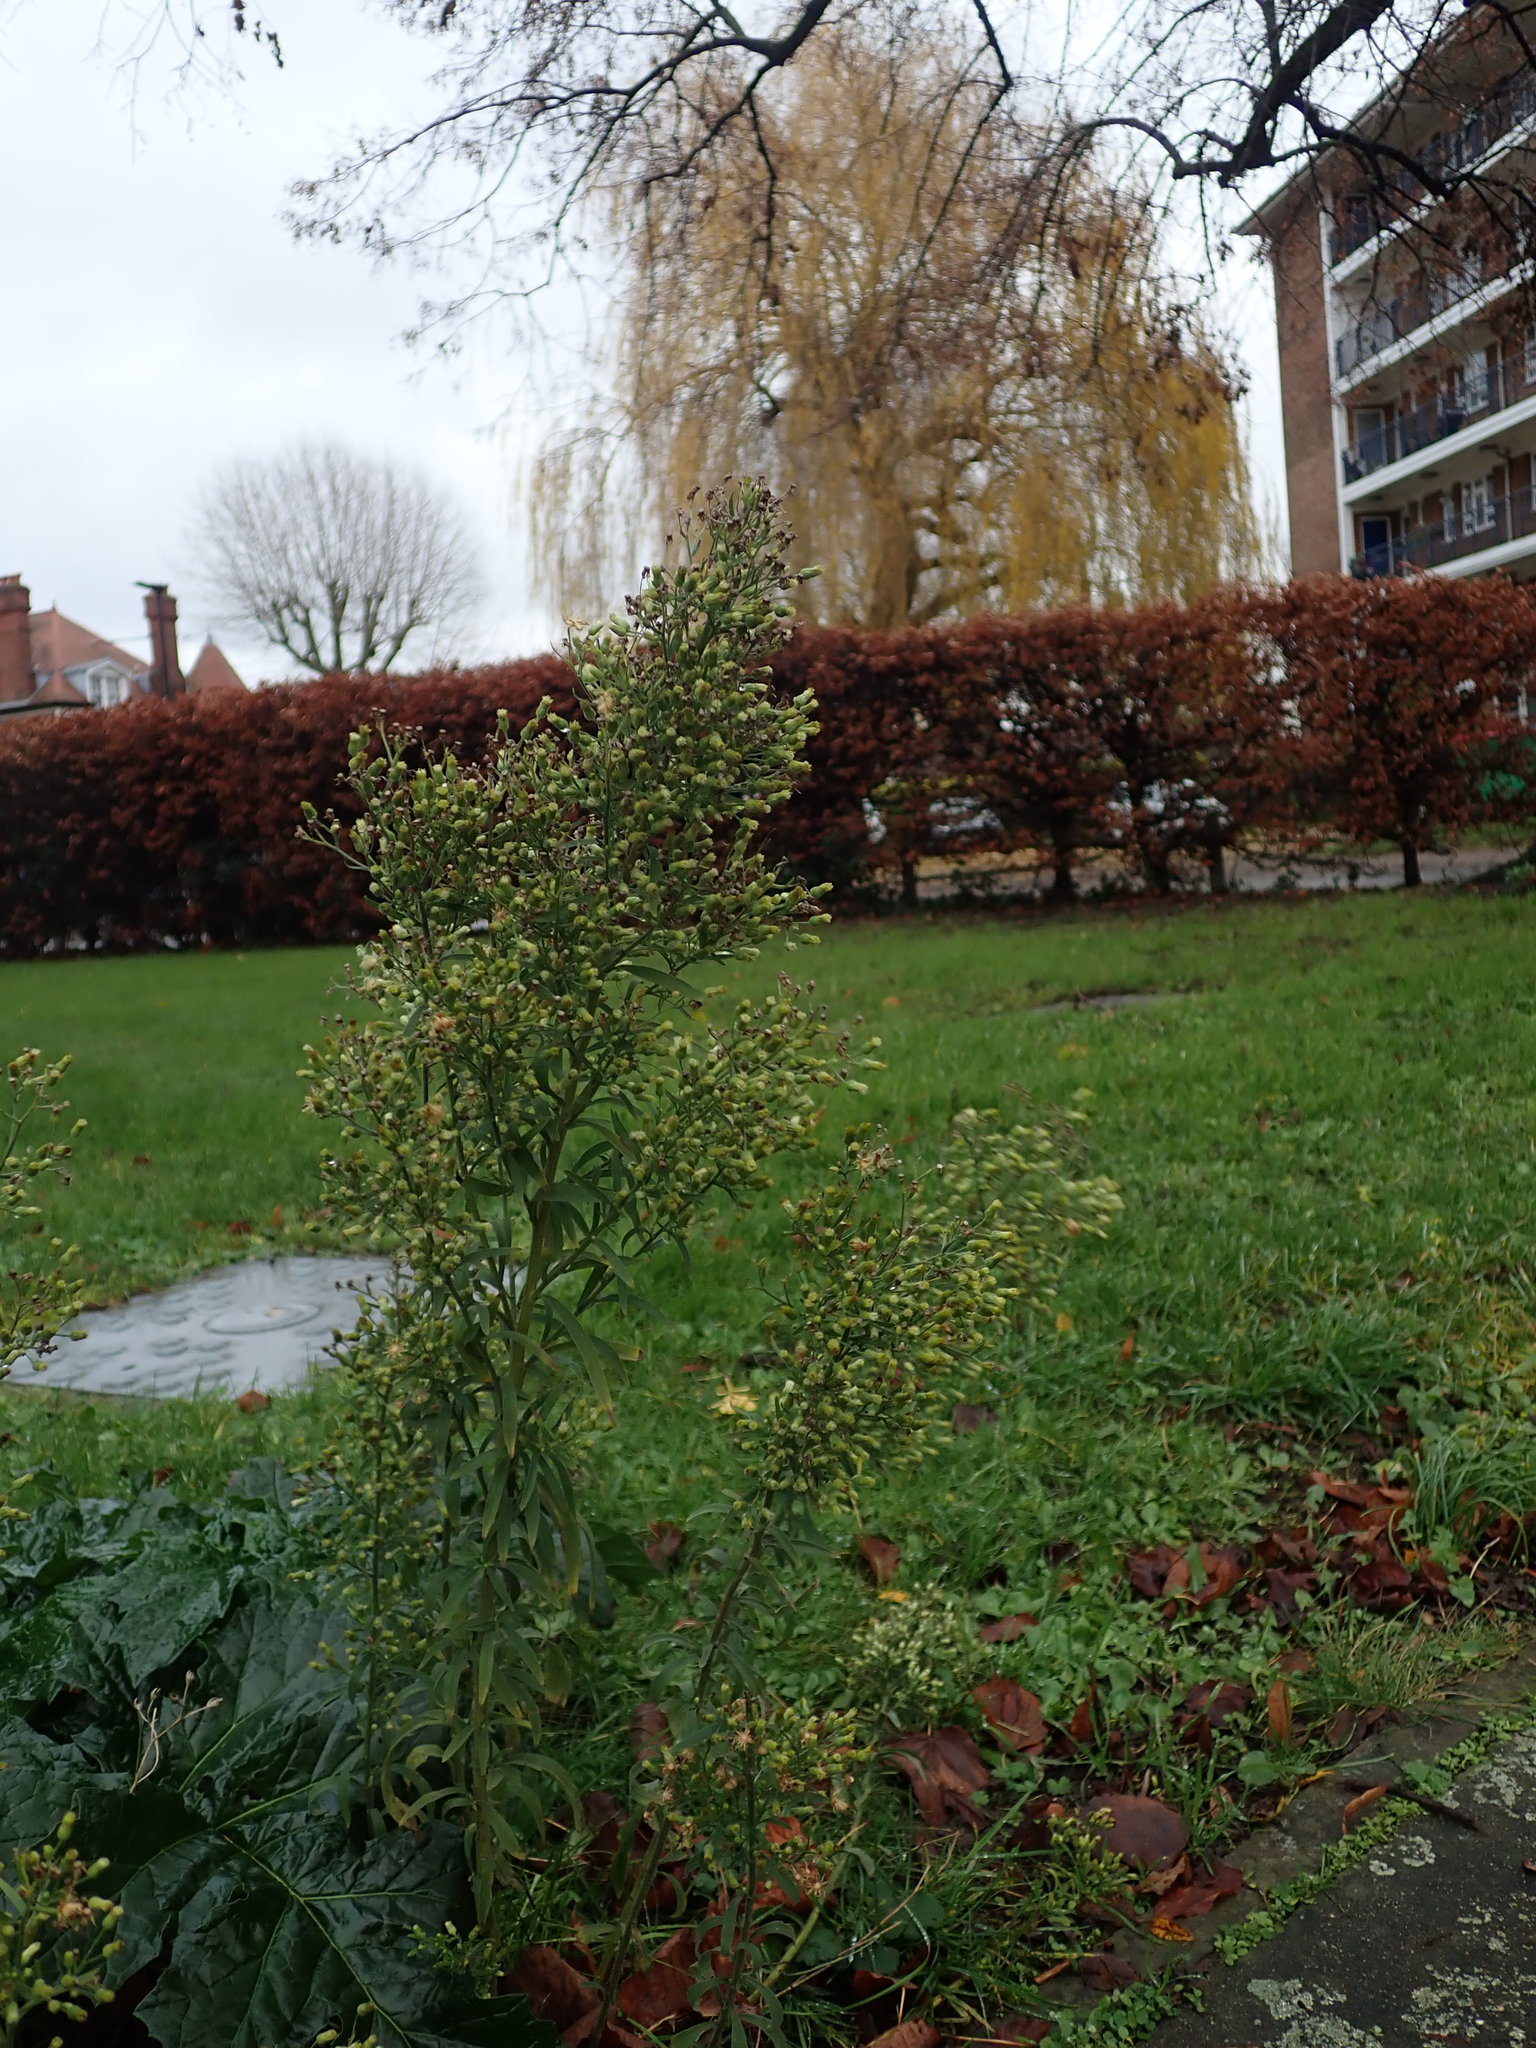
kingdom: Plantae
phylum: Tracheophyta
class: Magnoliopsida
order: Asterales
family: Asteraceae
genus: Erigeron
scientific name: Erigeron sumatrensis
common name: Daisy
